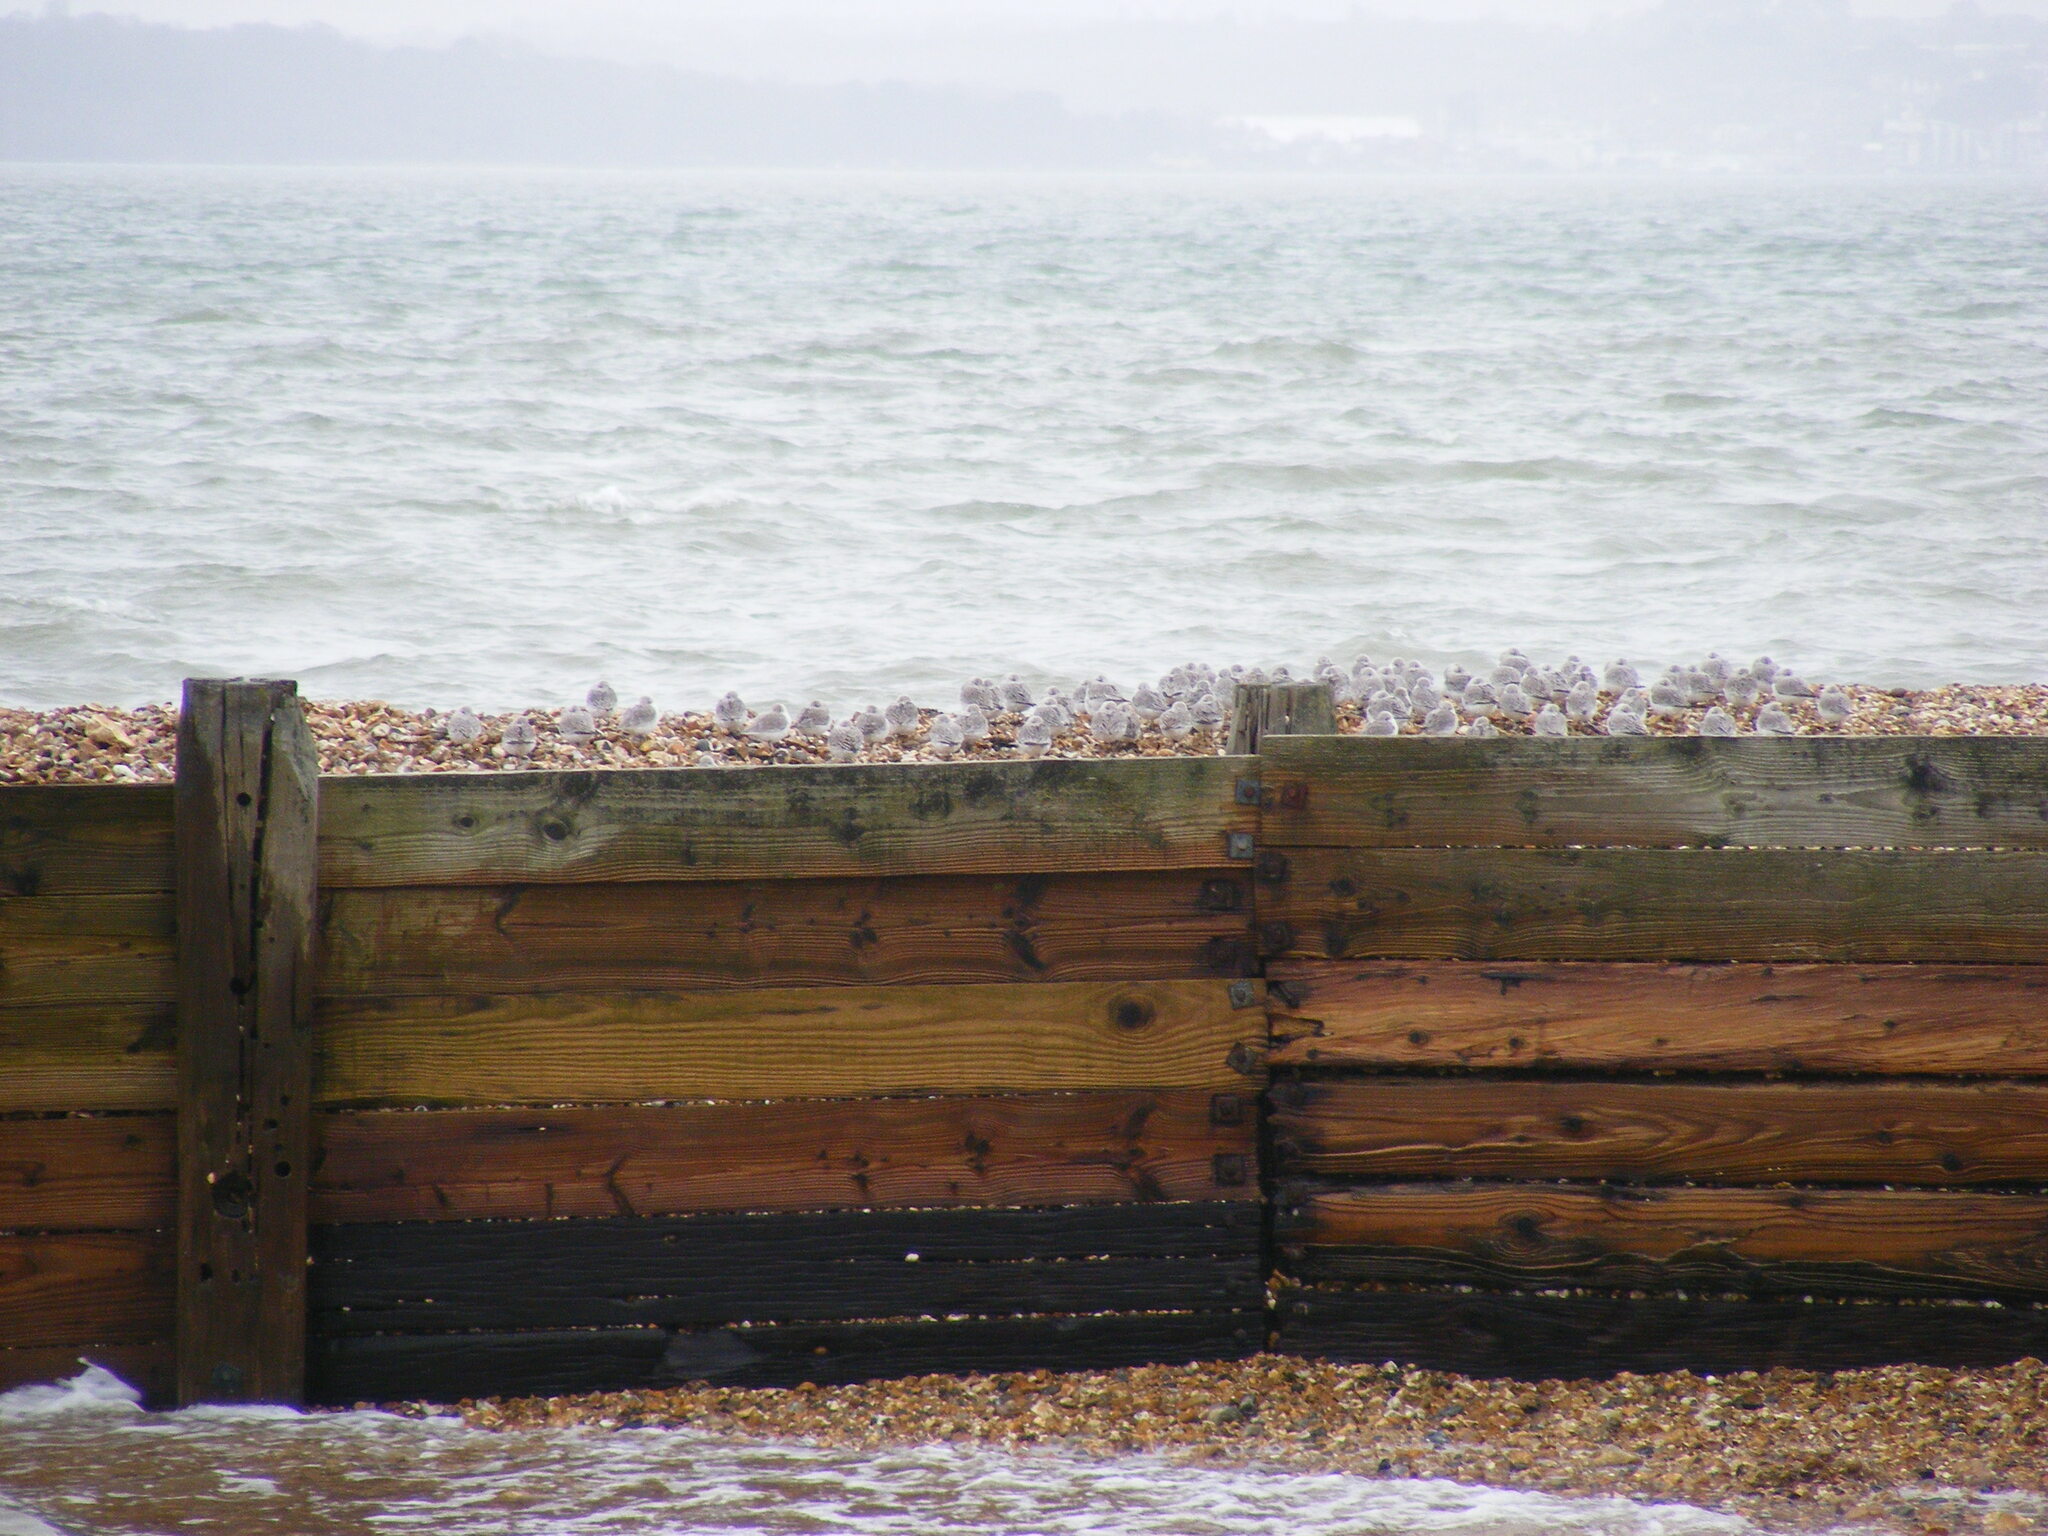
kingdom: Animalia
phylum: Chordata
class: Aves
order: Charadriiformes
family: Scolopacidae
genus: Calidris
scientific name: Calidris alba
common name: Sanderling
